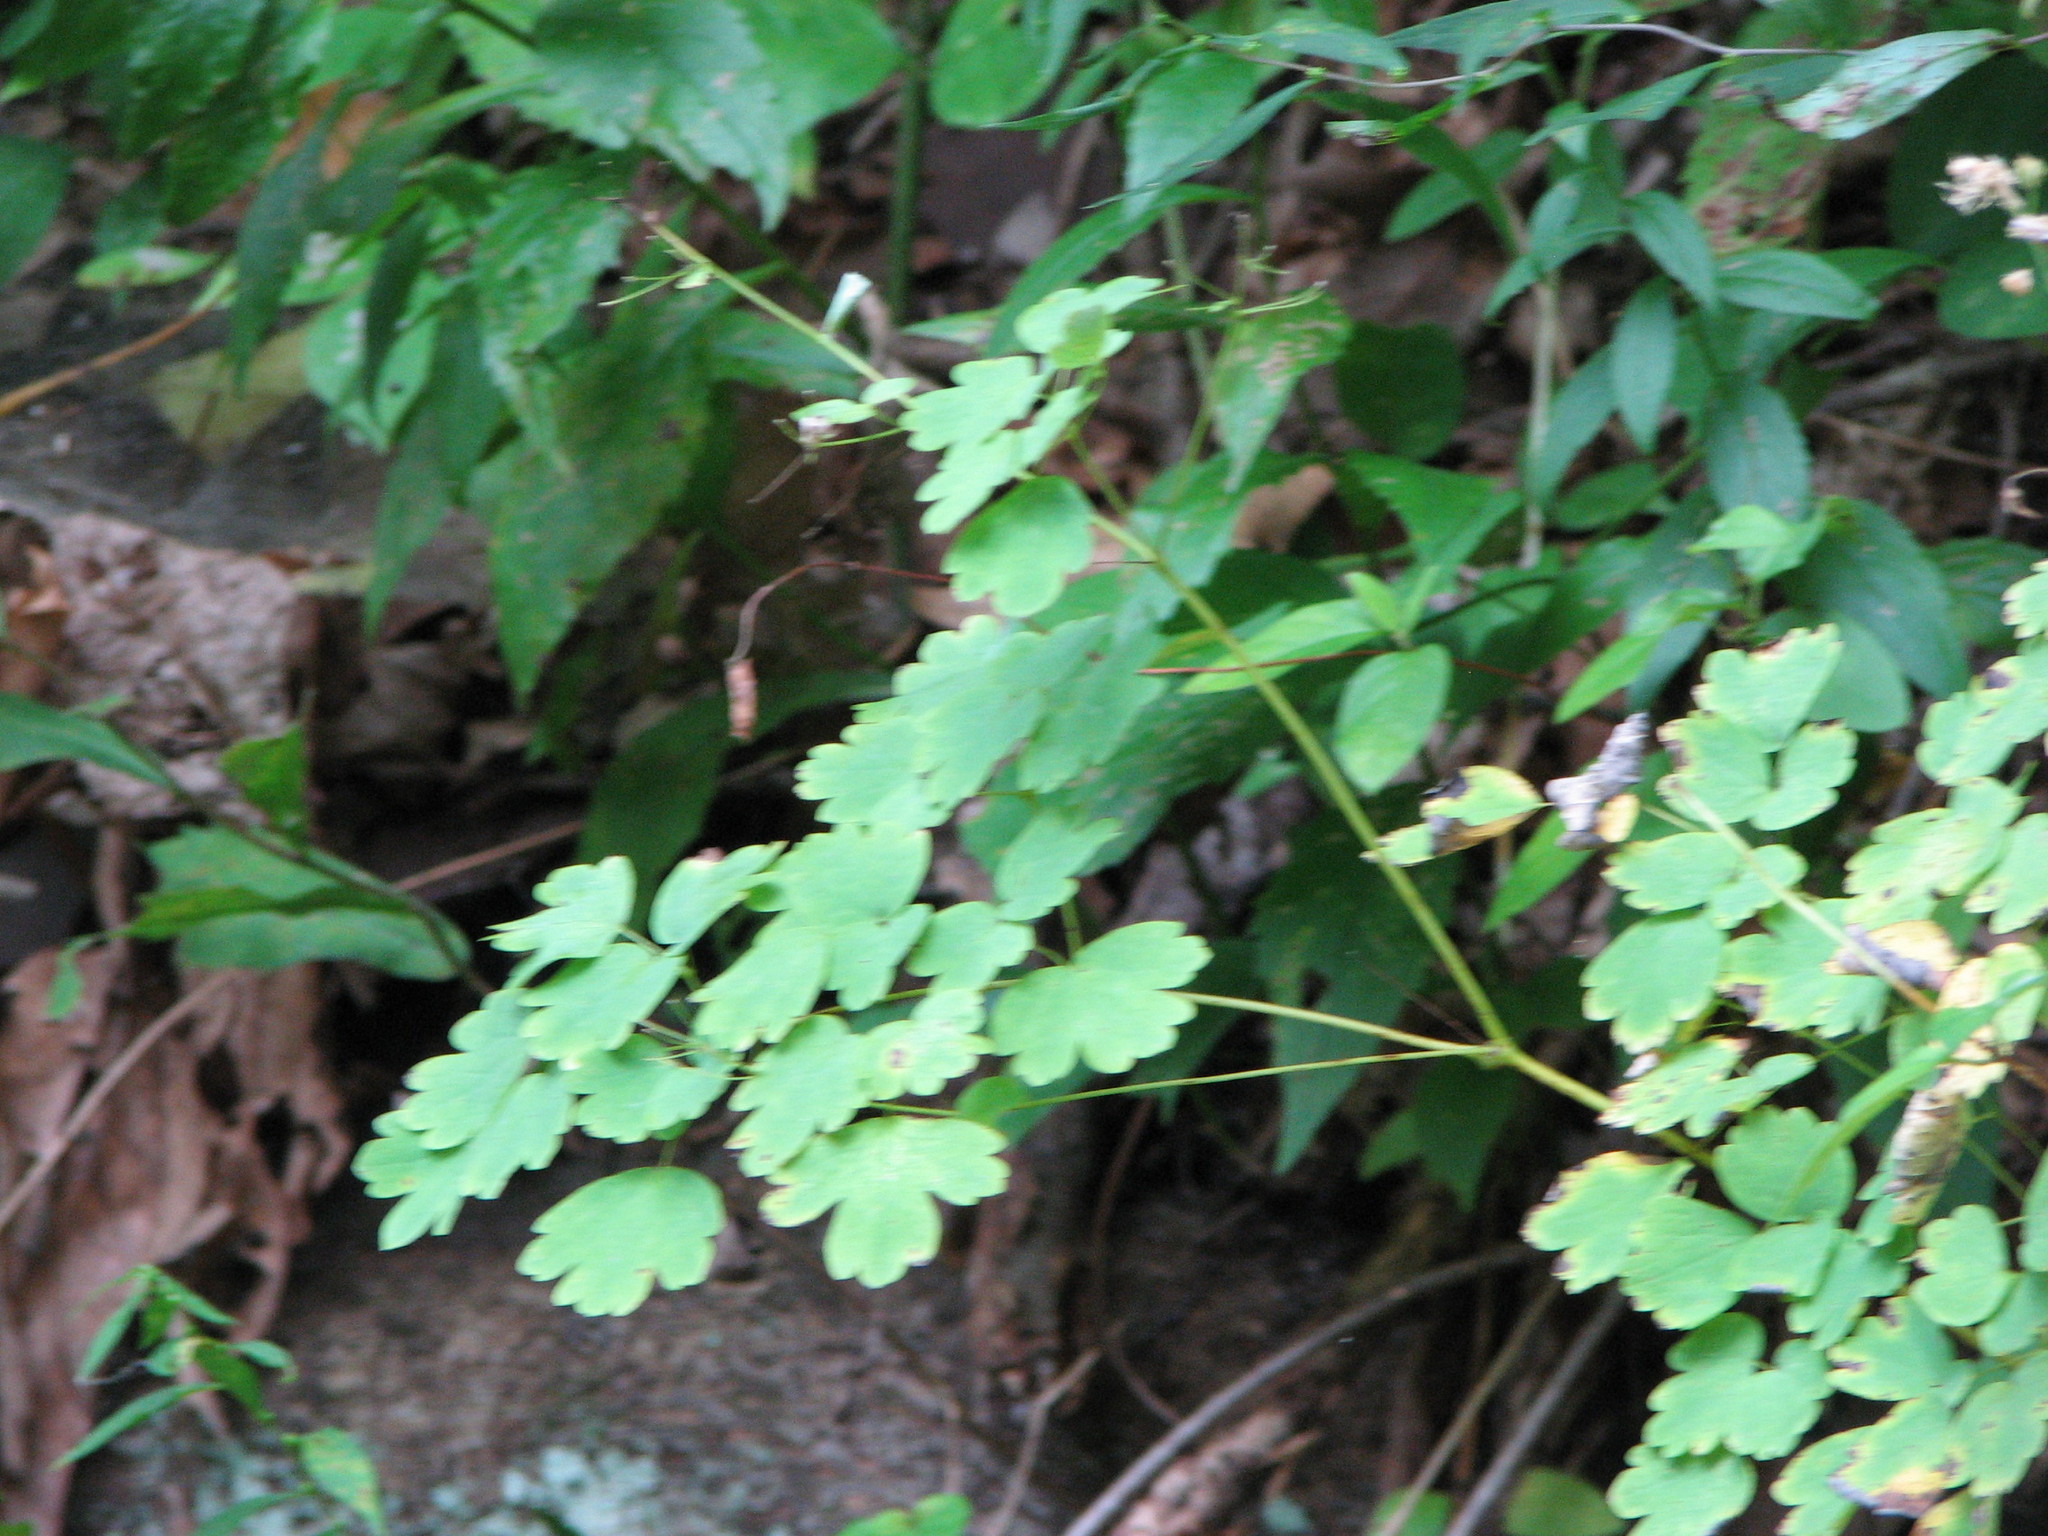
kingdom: Plantae
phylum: Tracheophyta
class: Magnoliopsida
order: Ranunculales
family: Ranunculaceae
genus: Thalictrum
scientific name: Thalictrum dioicum
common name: Early meadow-rue
